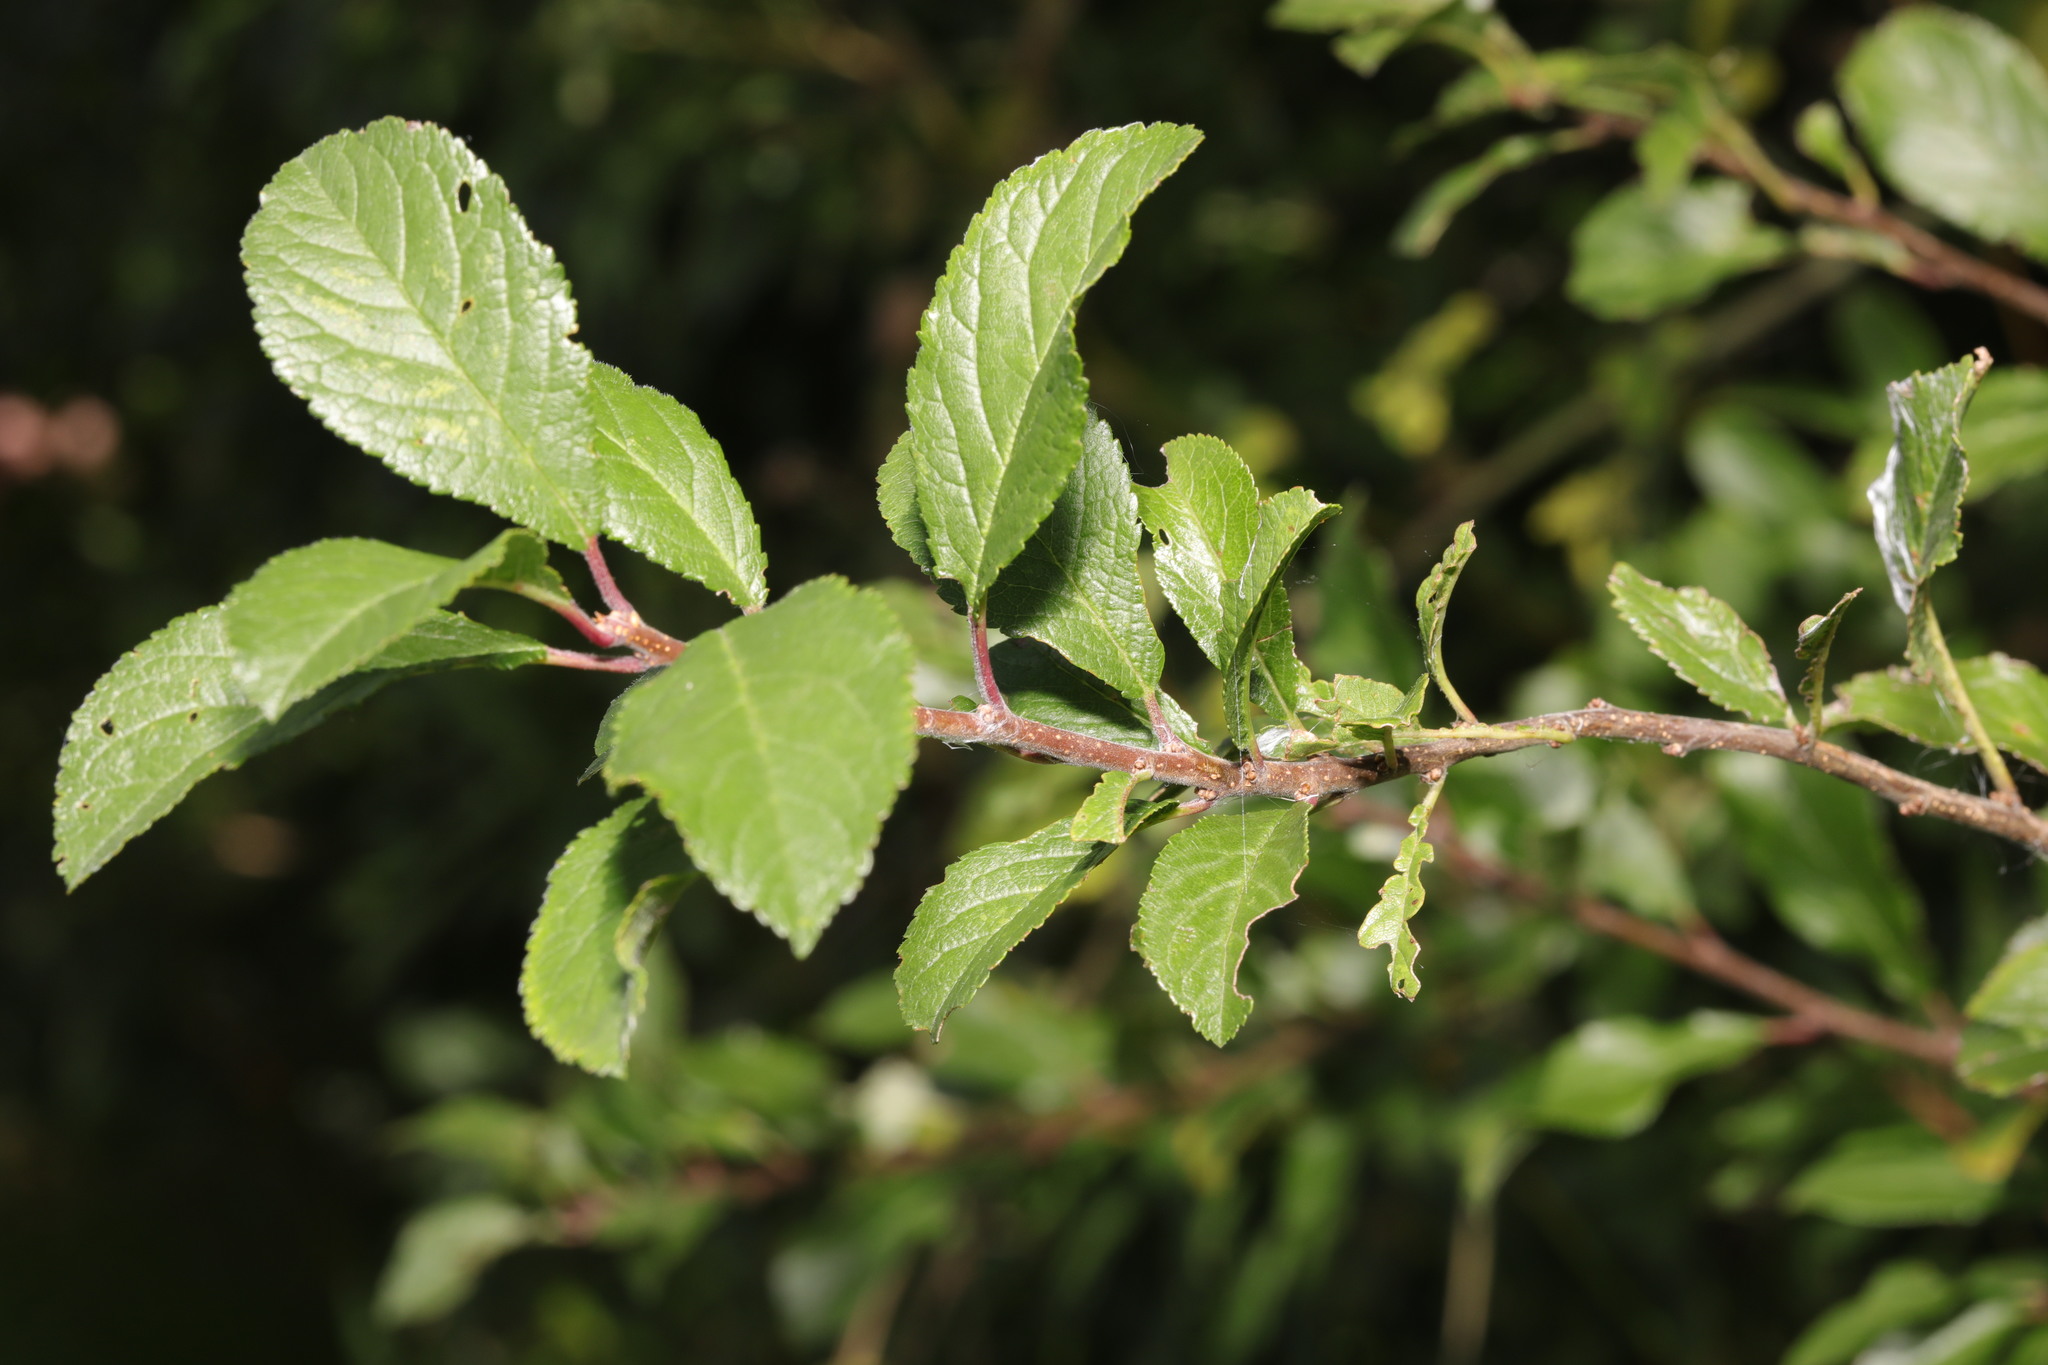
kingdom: Plantae
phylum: Tracheophyta
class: Magnoliopsida
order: Rosales
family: Rosaceae
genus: Prunus
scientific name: Prunus spinosa
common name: Blackthorn
